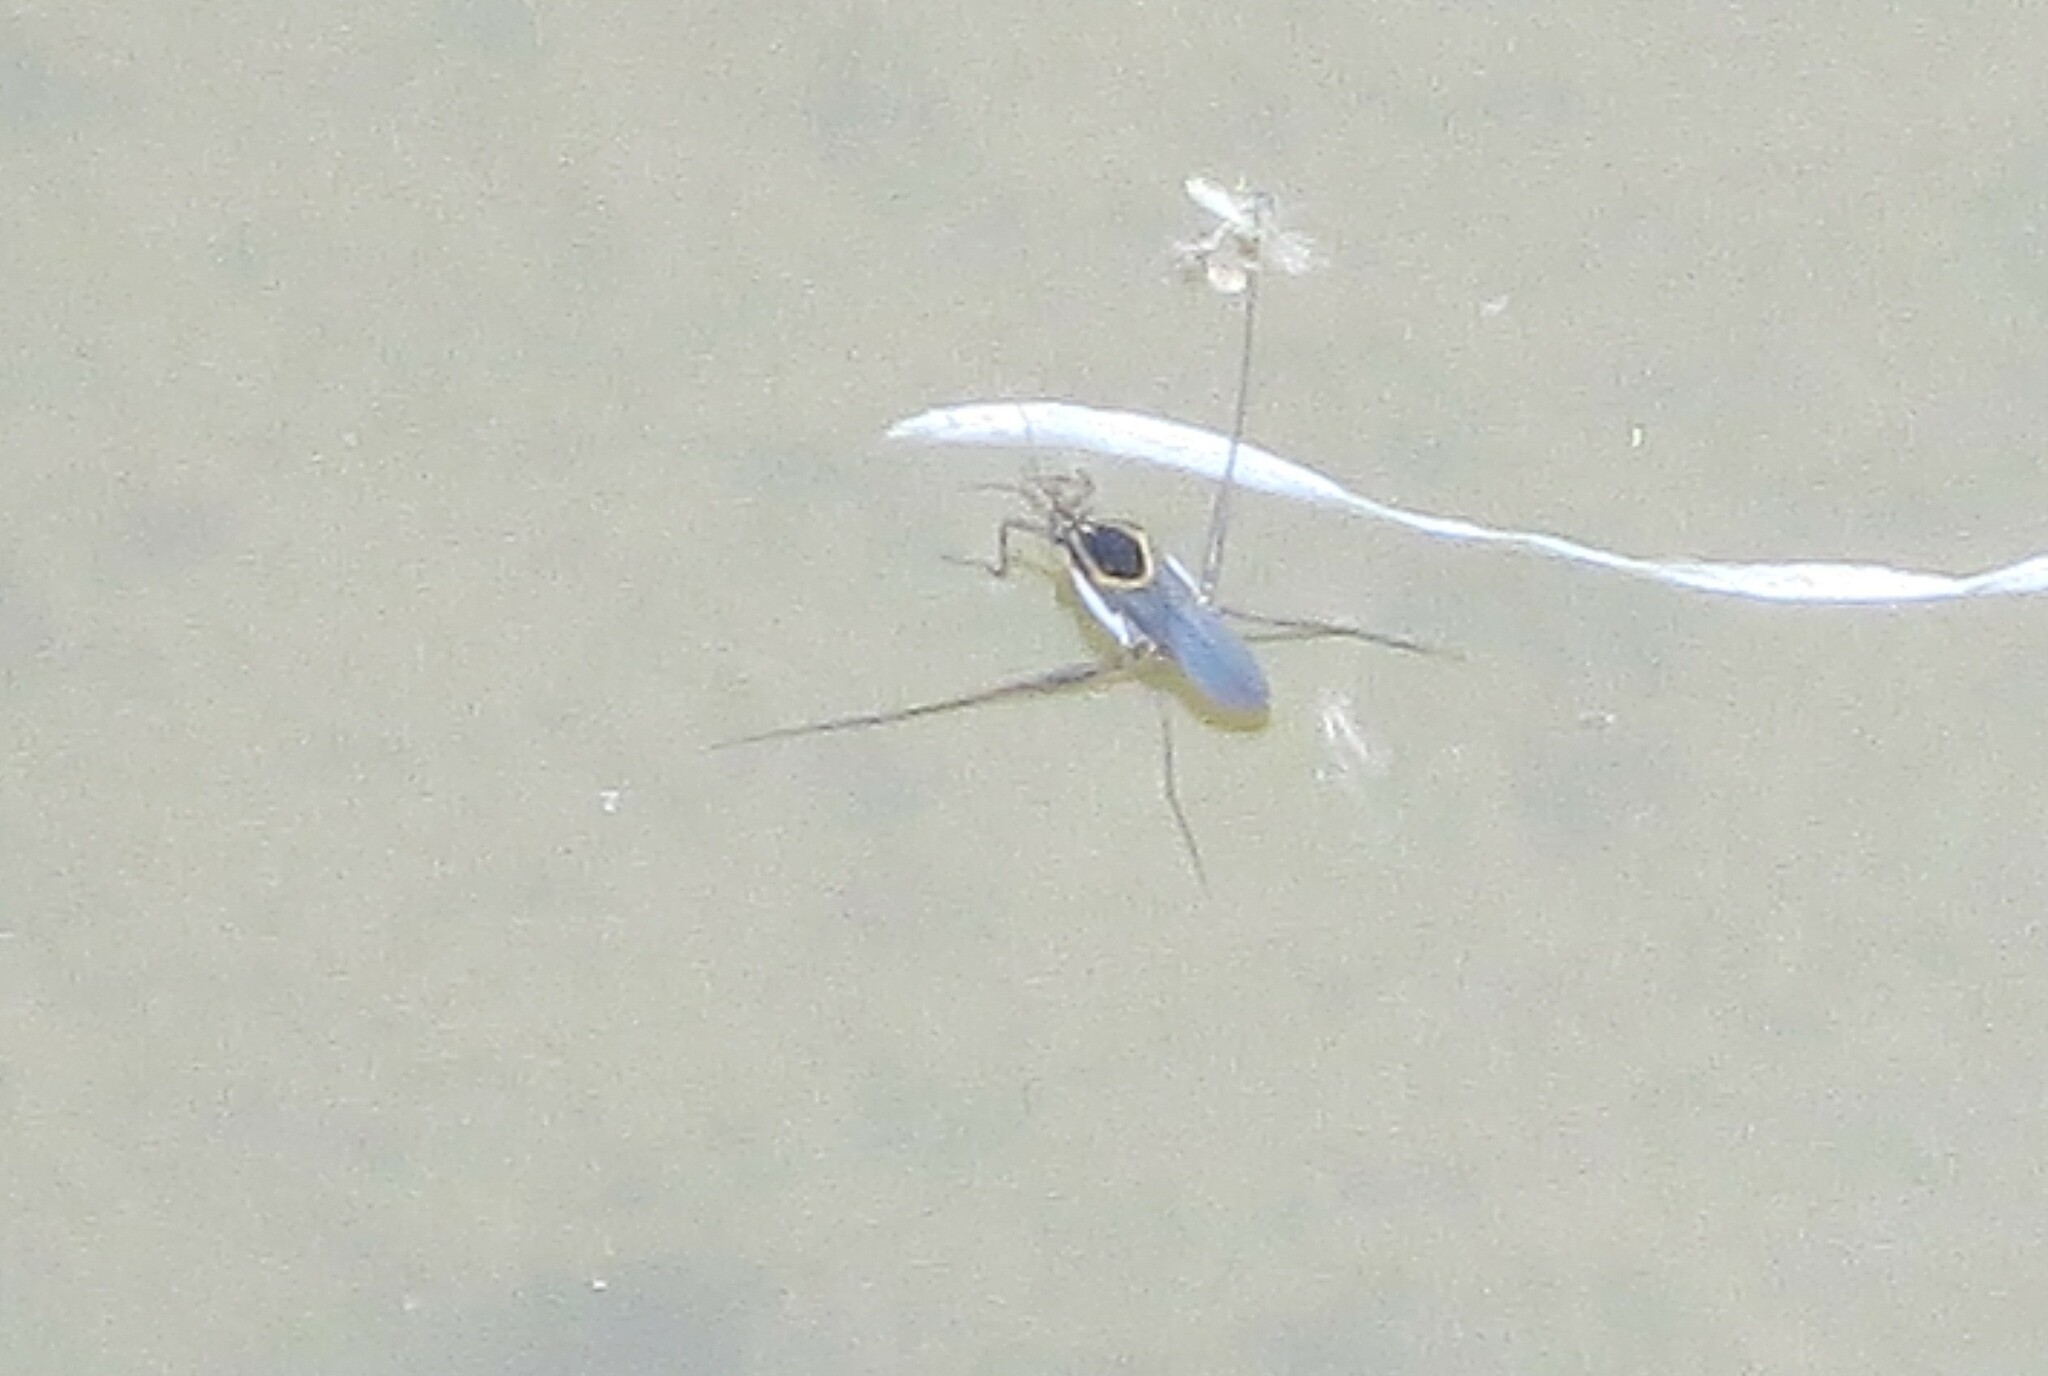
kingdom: Animalia
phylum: Arthropoda
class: Insecta
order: Hemiptera
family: Gerridae
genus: Trepobates
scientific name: Trepobates
